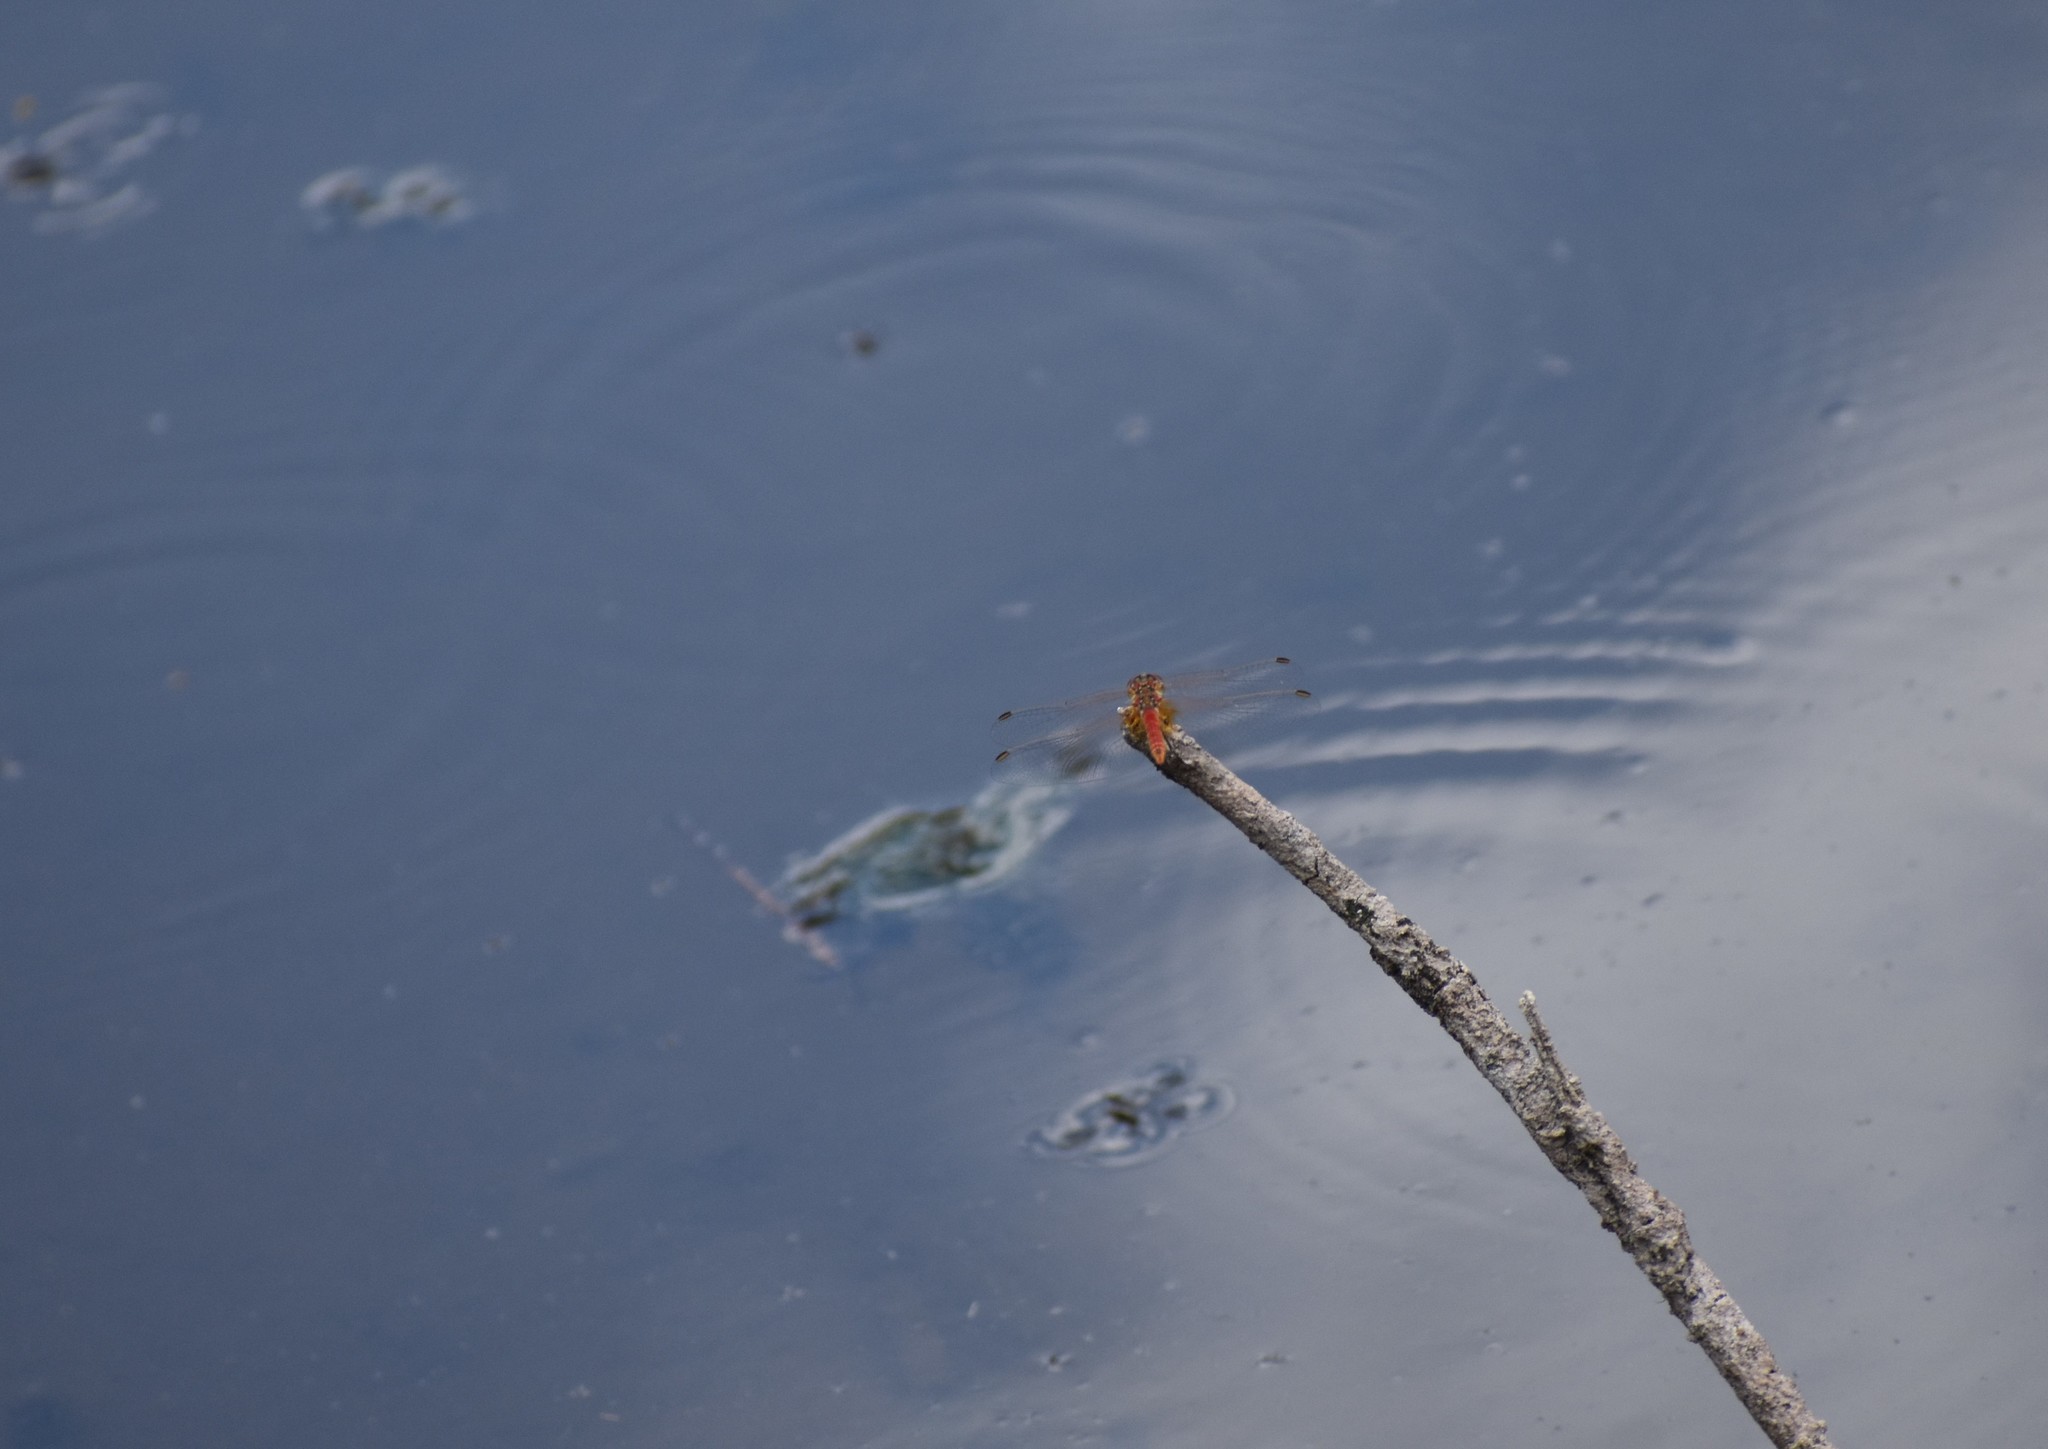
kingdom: Animalia
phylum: Arthropoda
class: Insecta
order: Odonata
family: Libellulidae
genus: Sympetrum
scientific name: Sympetrum fonscolombii
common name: Red-veined darter
